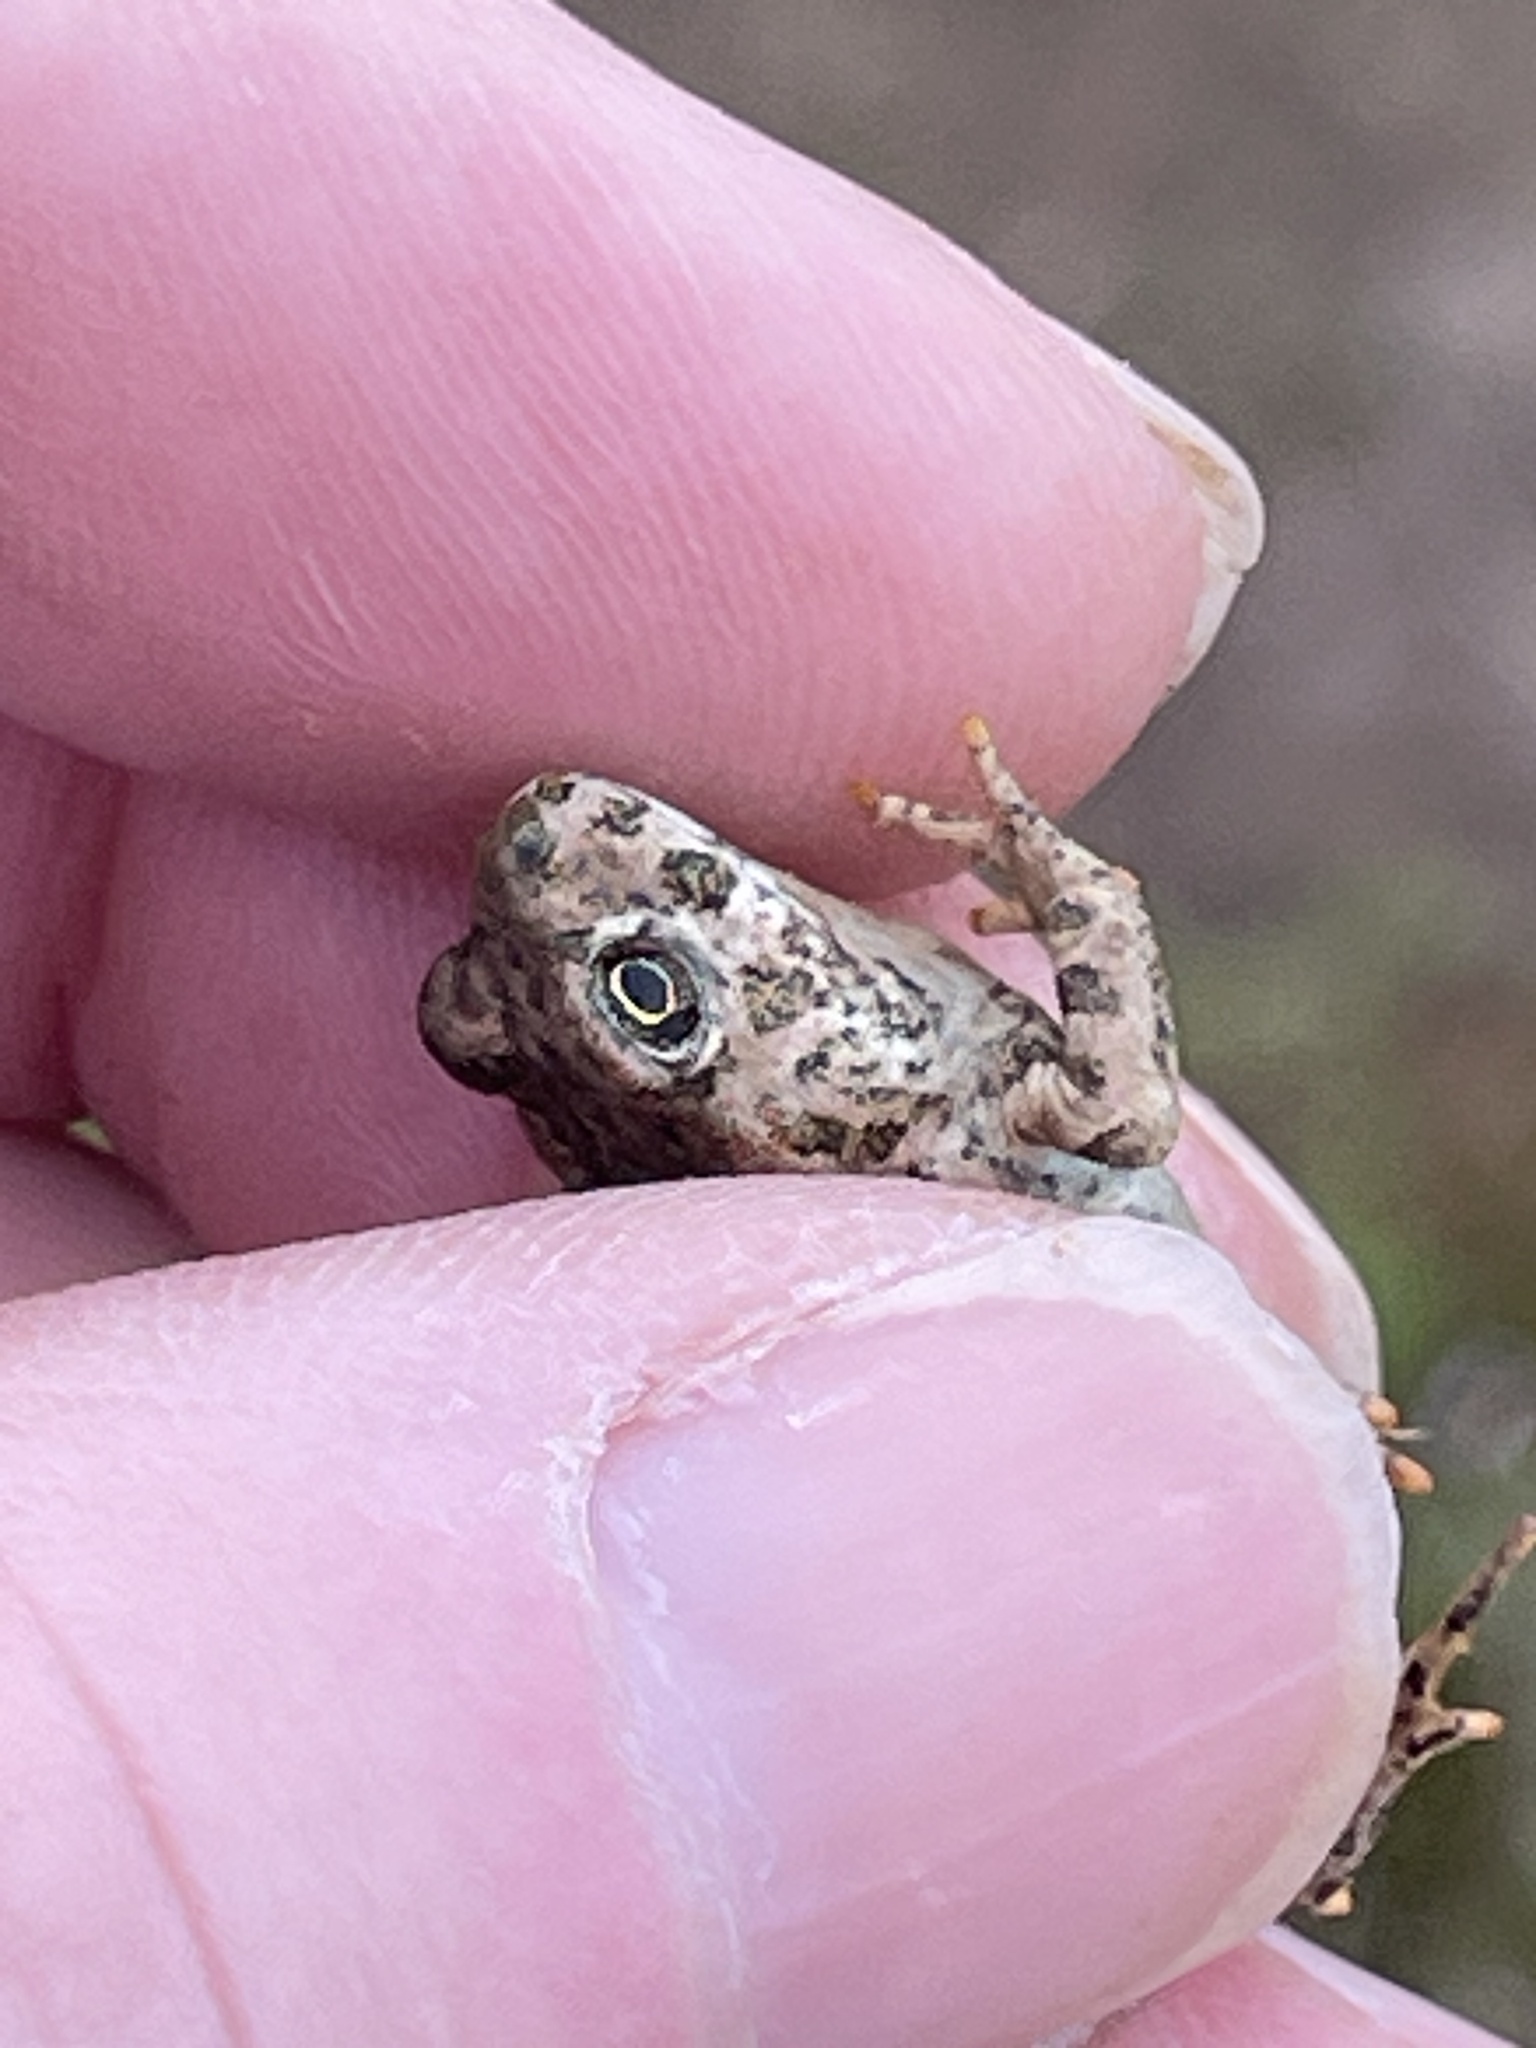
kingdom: Animalia
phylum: Chordata
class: Amphibia
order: Anura
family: Bufonidae
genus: Anaxyrus
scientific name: Anaxyrus boreas
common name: Western toad
